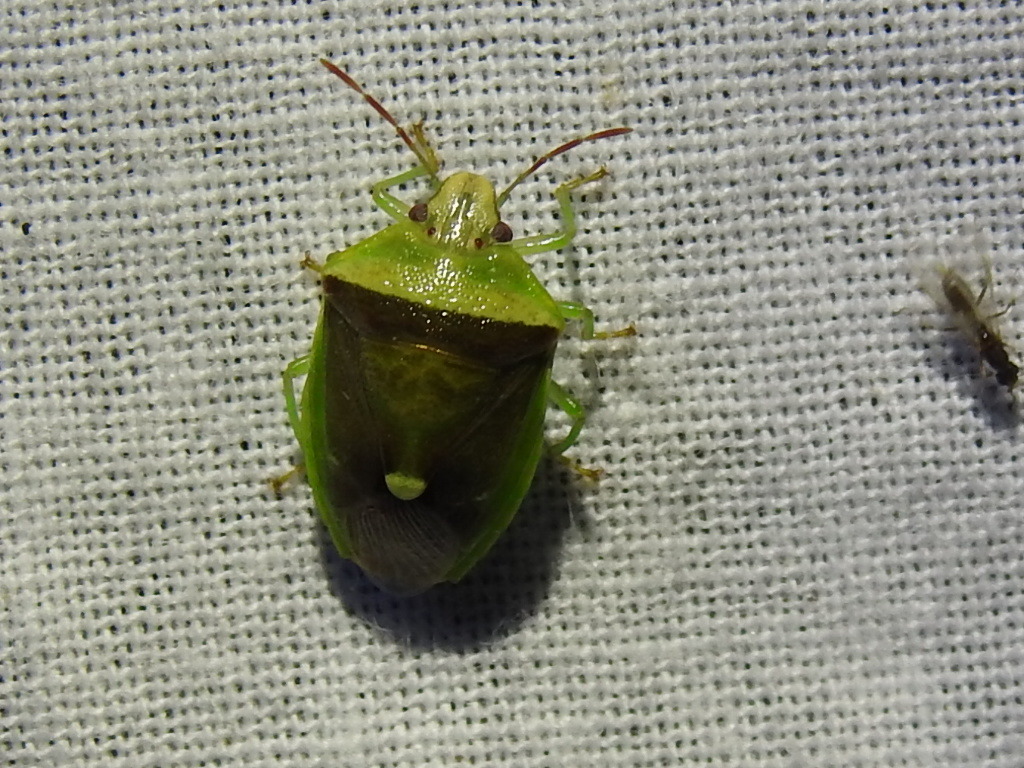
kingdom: Animalia
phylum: Arthropoda
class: Insecta
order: Hemiptera
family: Pentatomidae
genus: Banasa
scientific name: Banasa dimidiata
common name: Green burgundy stink bug
